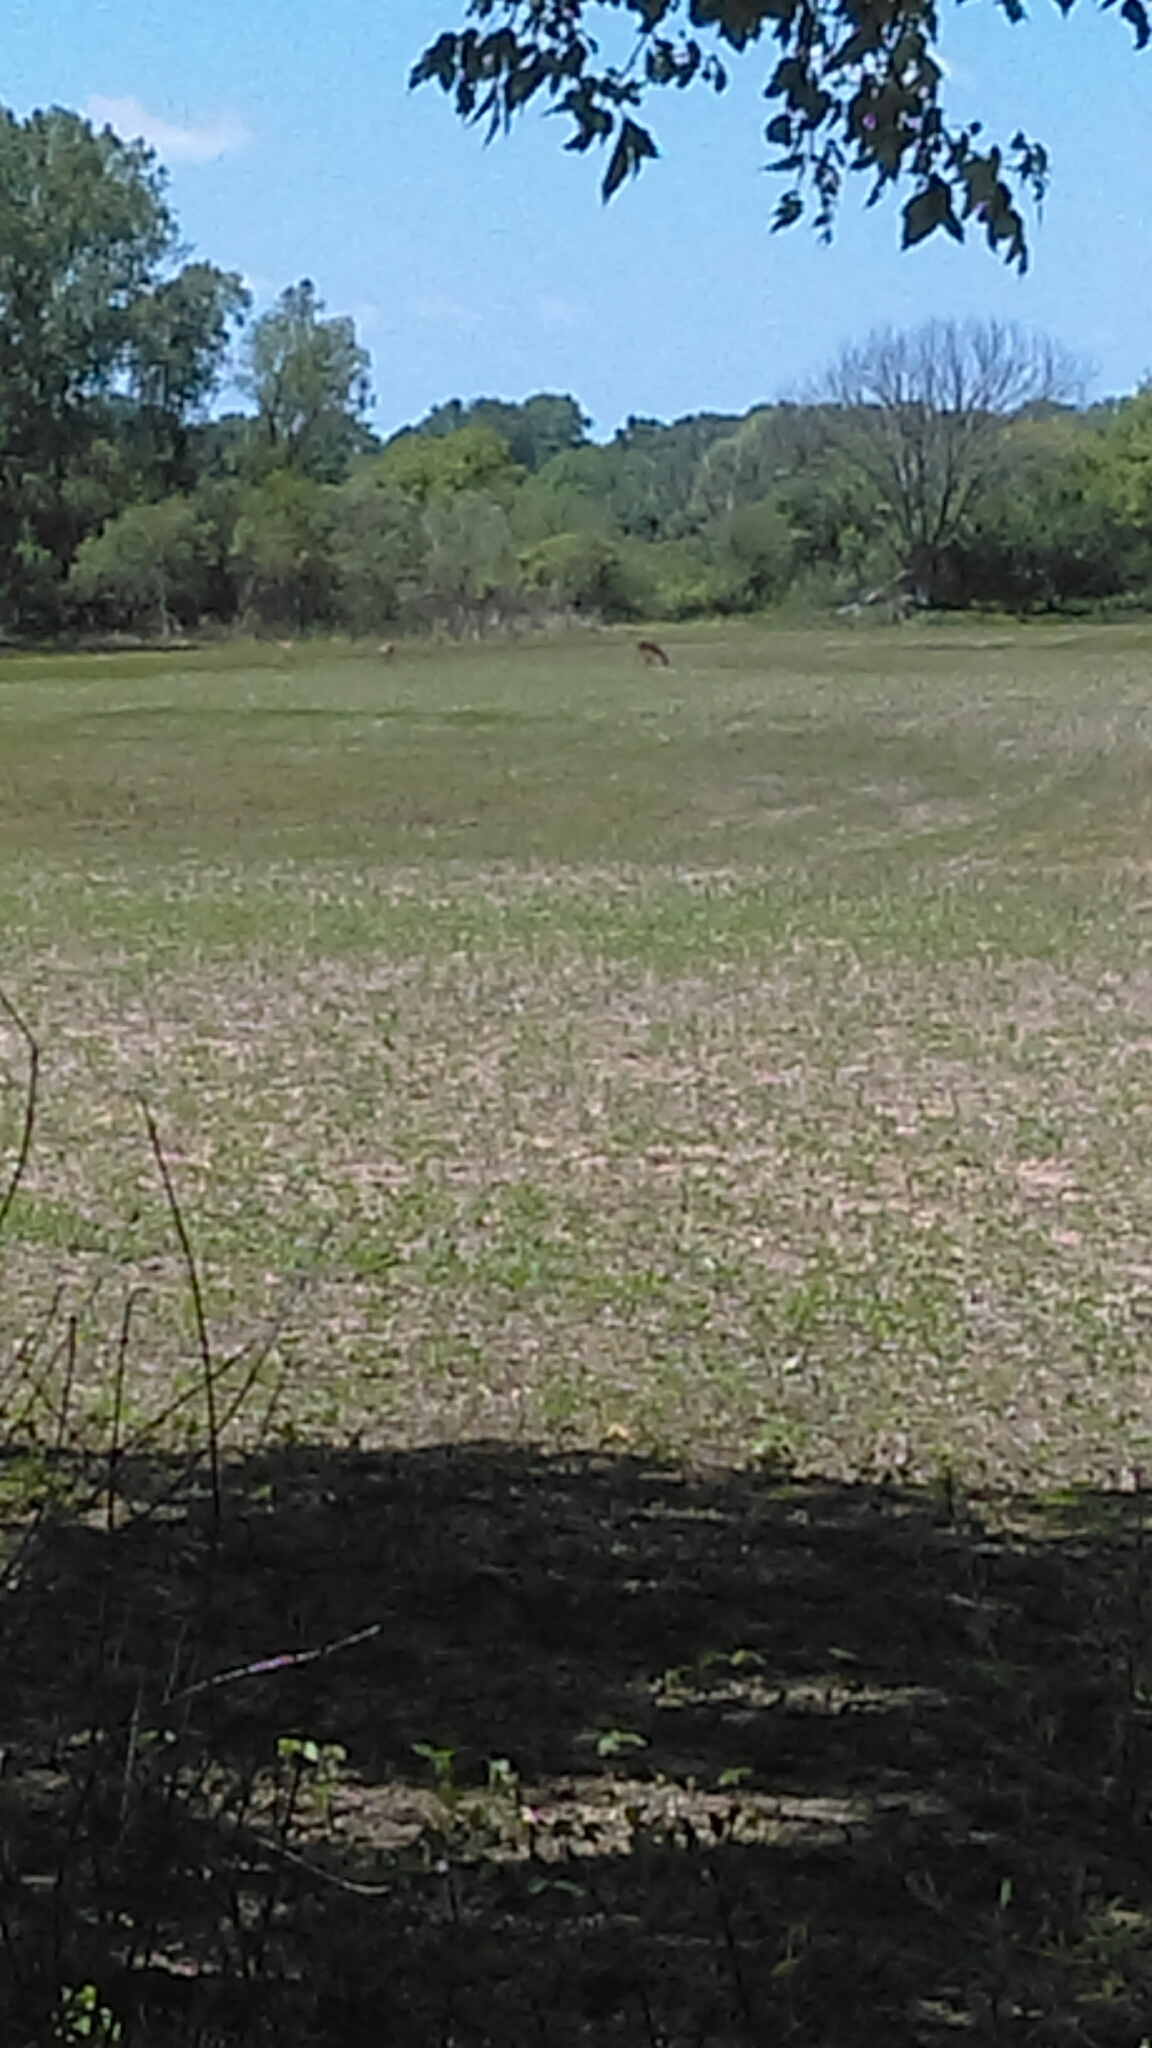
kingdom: Animalia
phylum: Chordata
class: Mammalia
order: Artiodactyla
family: Cervidae
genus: Odocoileus
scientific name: Odocoileus virginianus
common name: White-tailed deer
